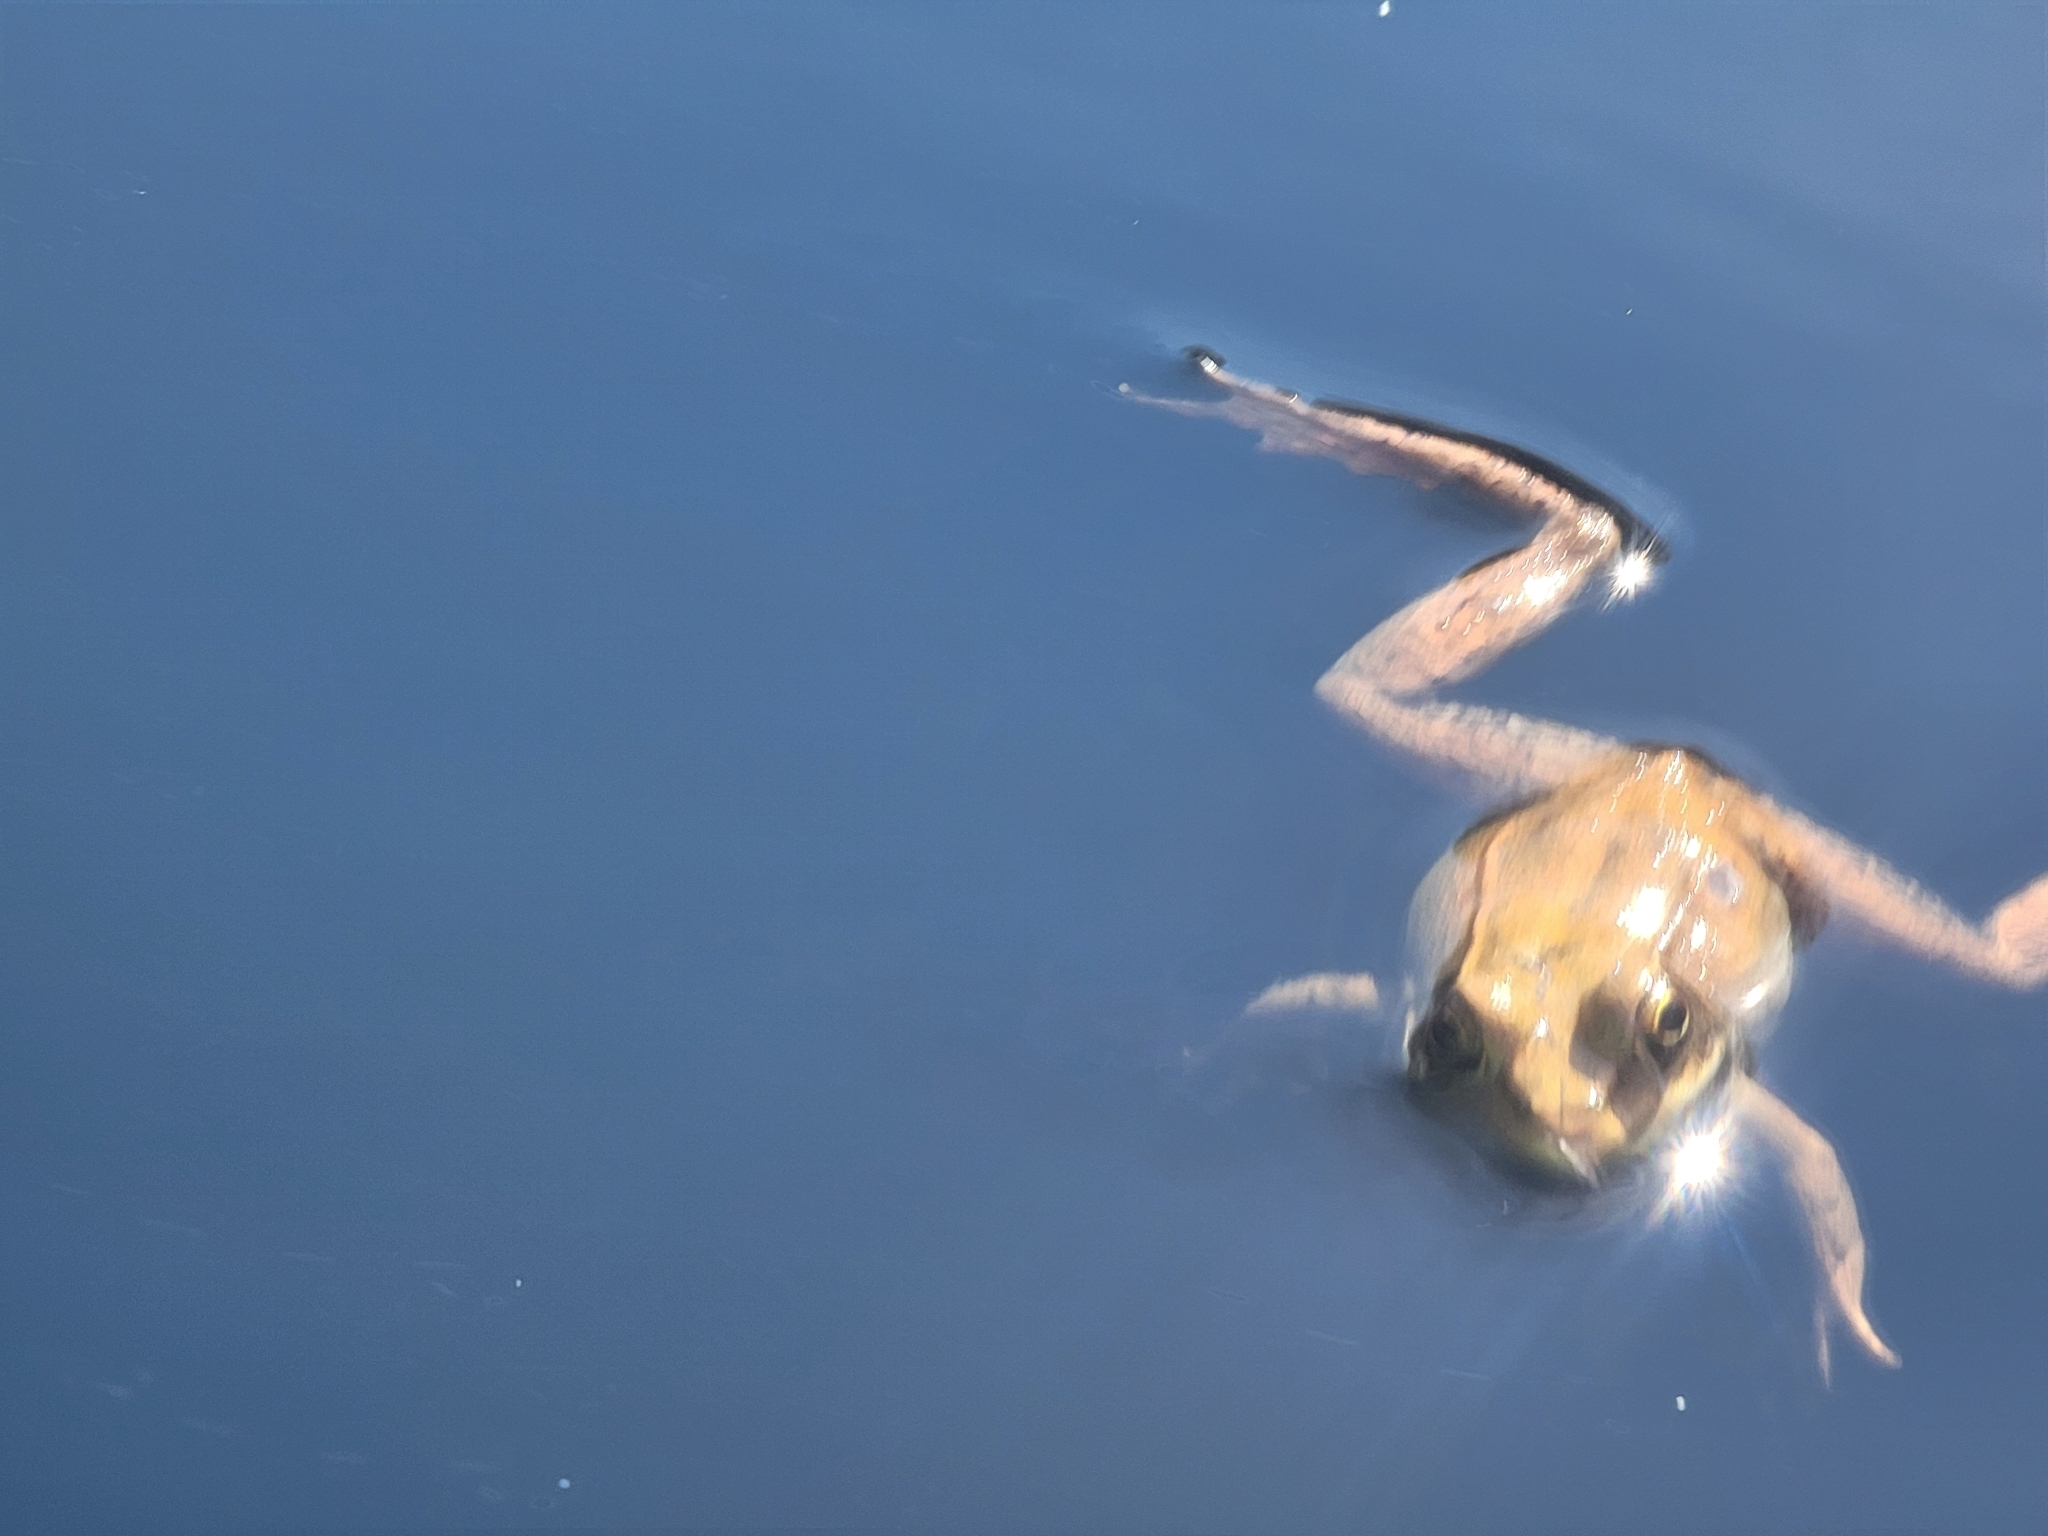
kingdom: Animalia
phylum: Chordata
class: Amphibia
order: Anura
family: Ranidae
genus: Lithobates
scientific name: Lithobates clamitans
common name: Green frog
